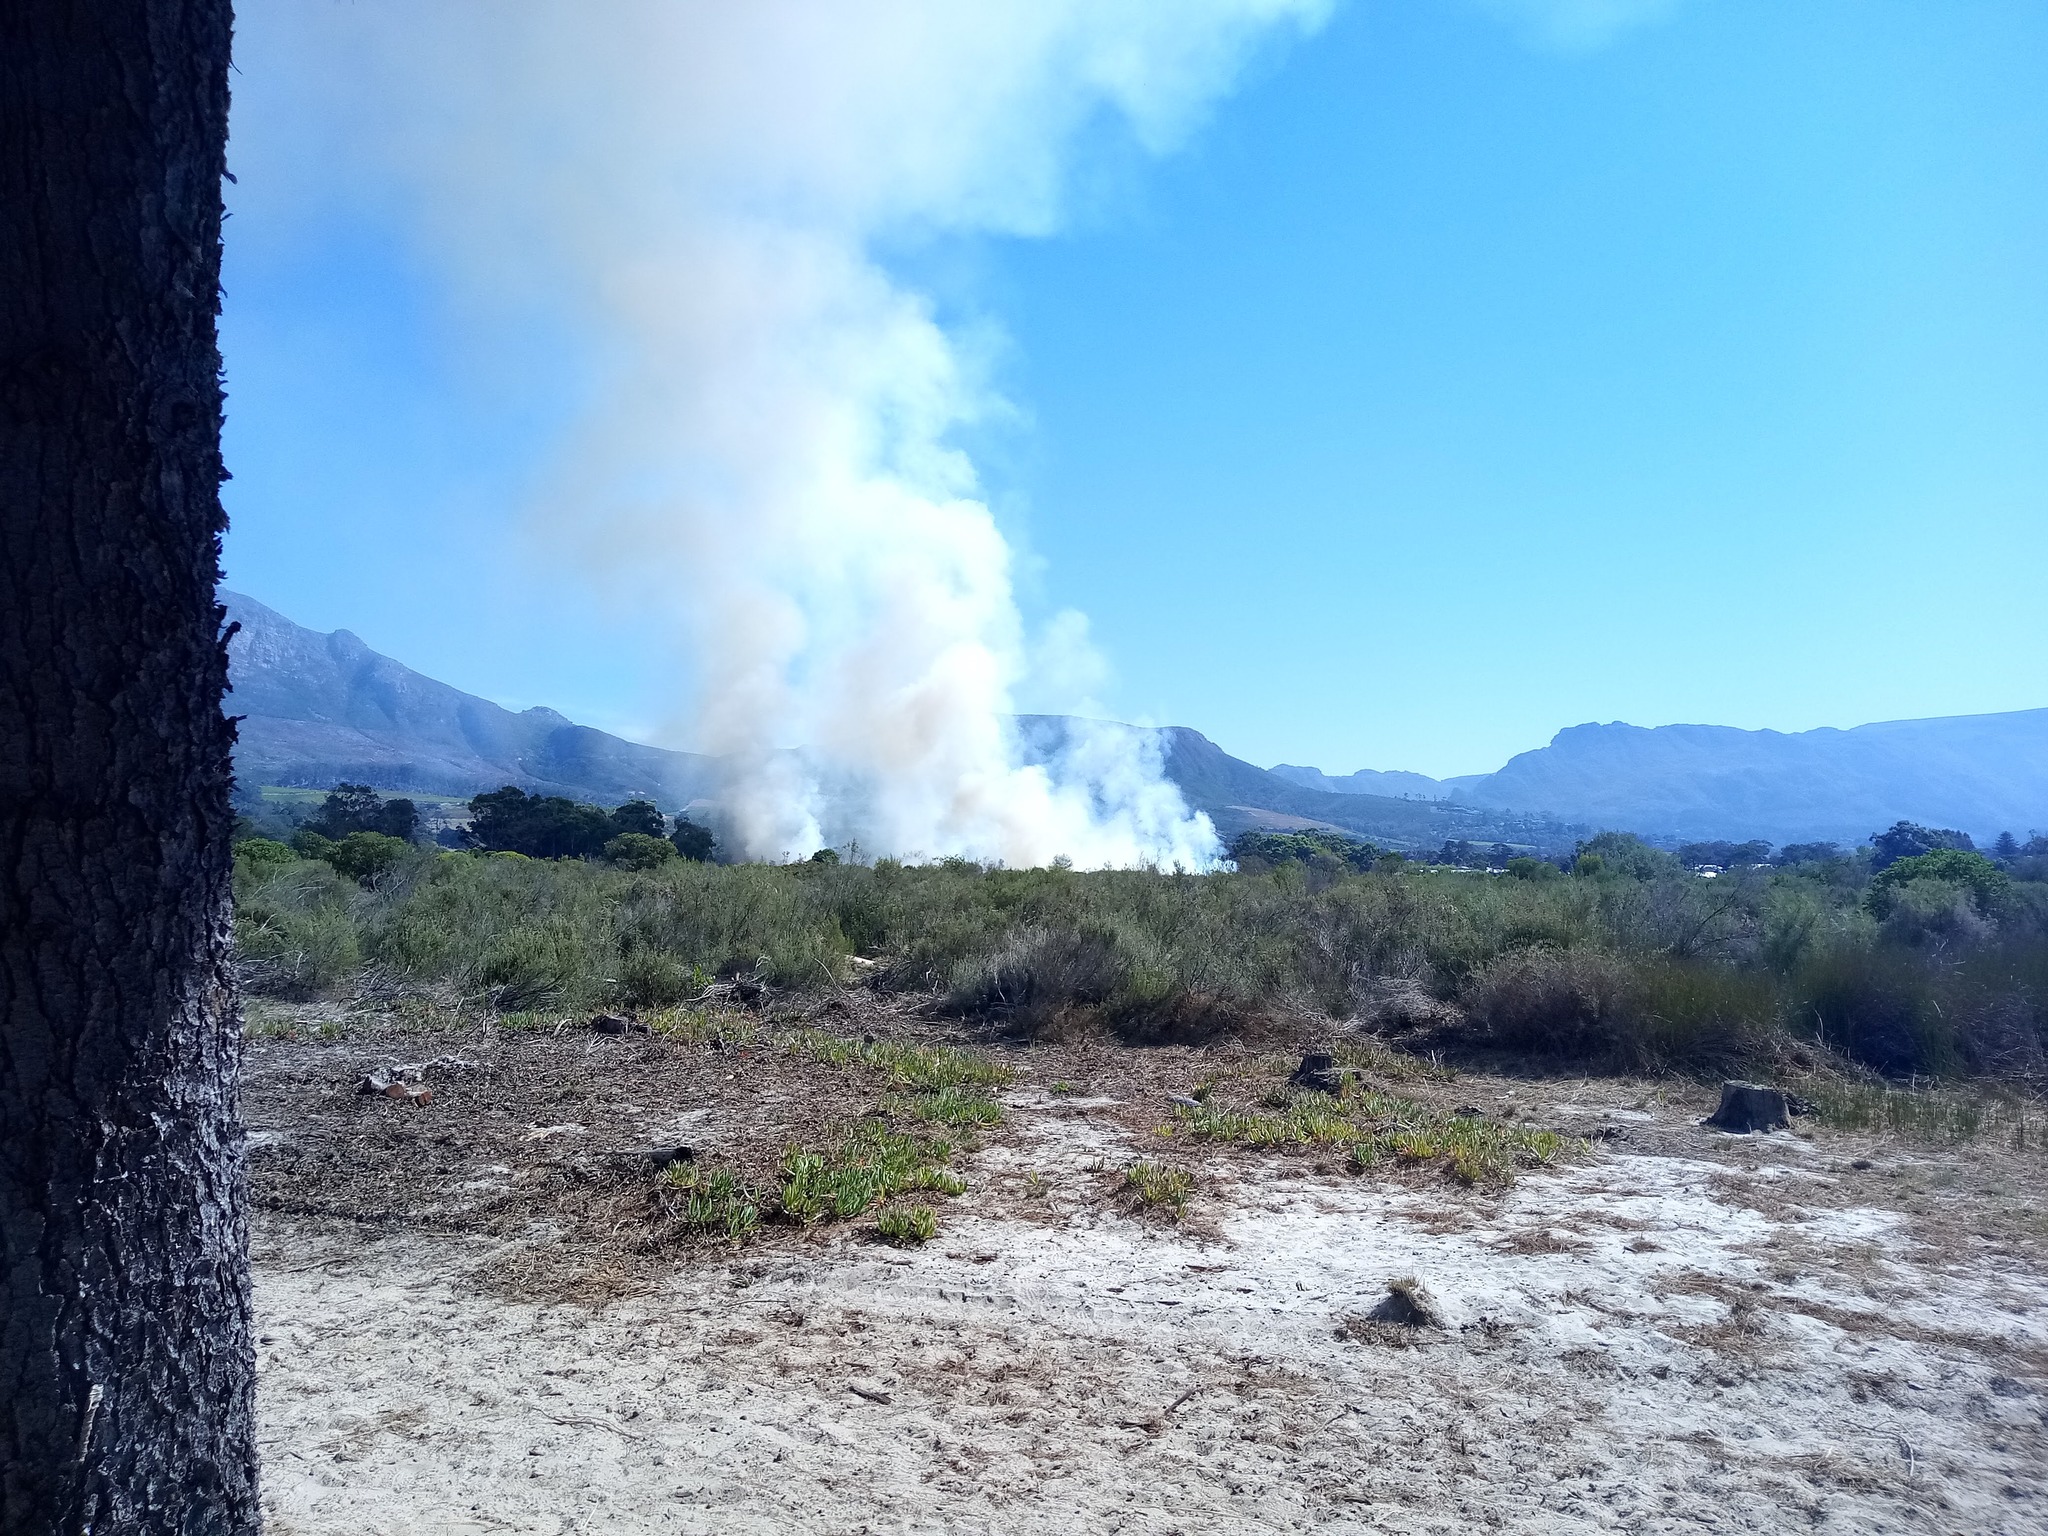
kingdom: Plantae
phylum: Tracheophyta
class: Magnoliopsida
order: Caryophyllales
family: Aizoaceae
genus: Carpobrotus
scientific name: Carpobrotus edulis
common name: Hottentot-fig
